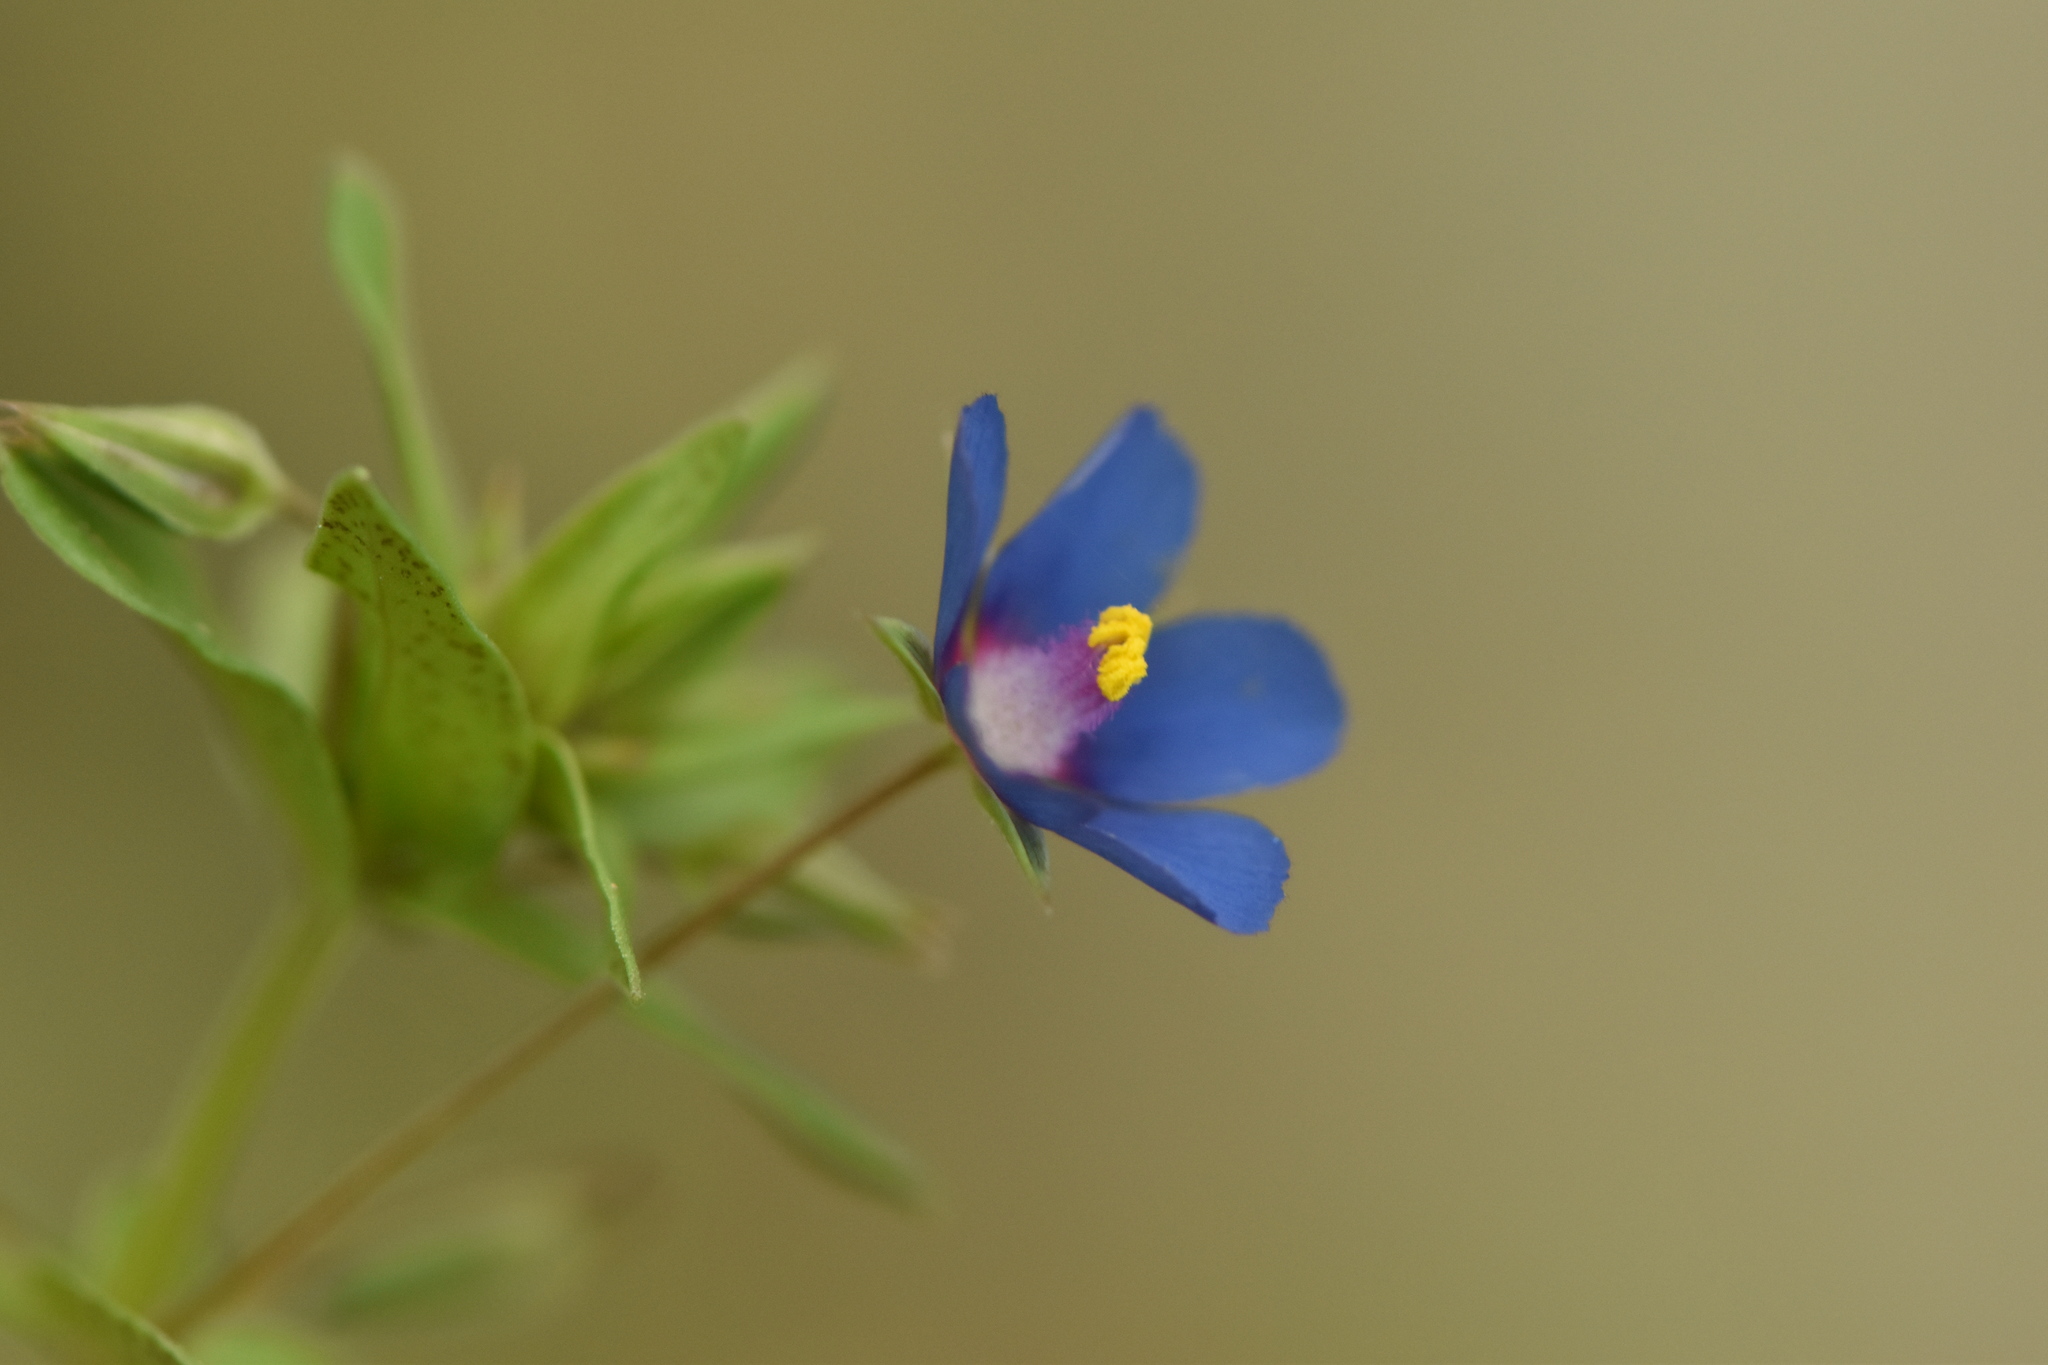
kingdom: Plantae
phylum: Tracheophyta
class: Magnoliopsida
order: Ericales
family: Primulaceae
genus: Lysimachia
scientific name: Lysimachia loeflingii
